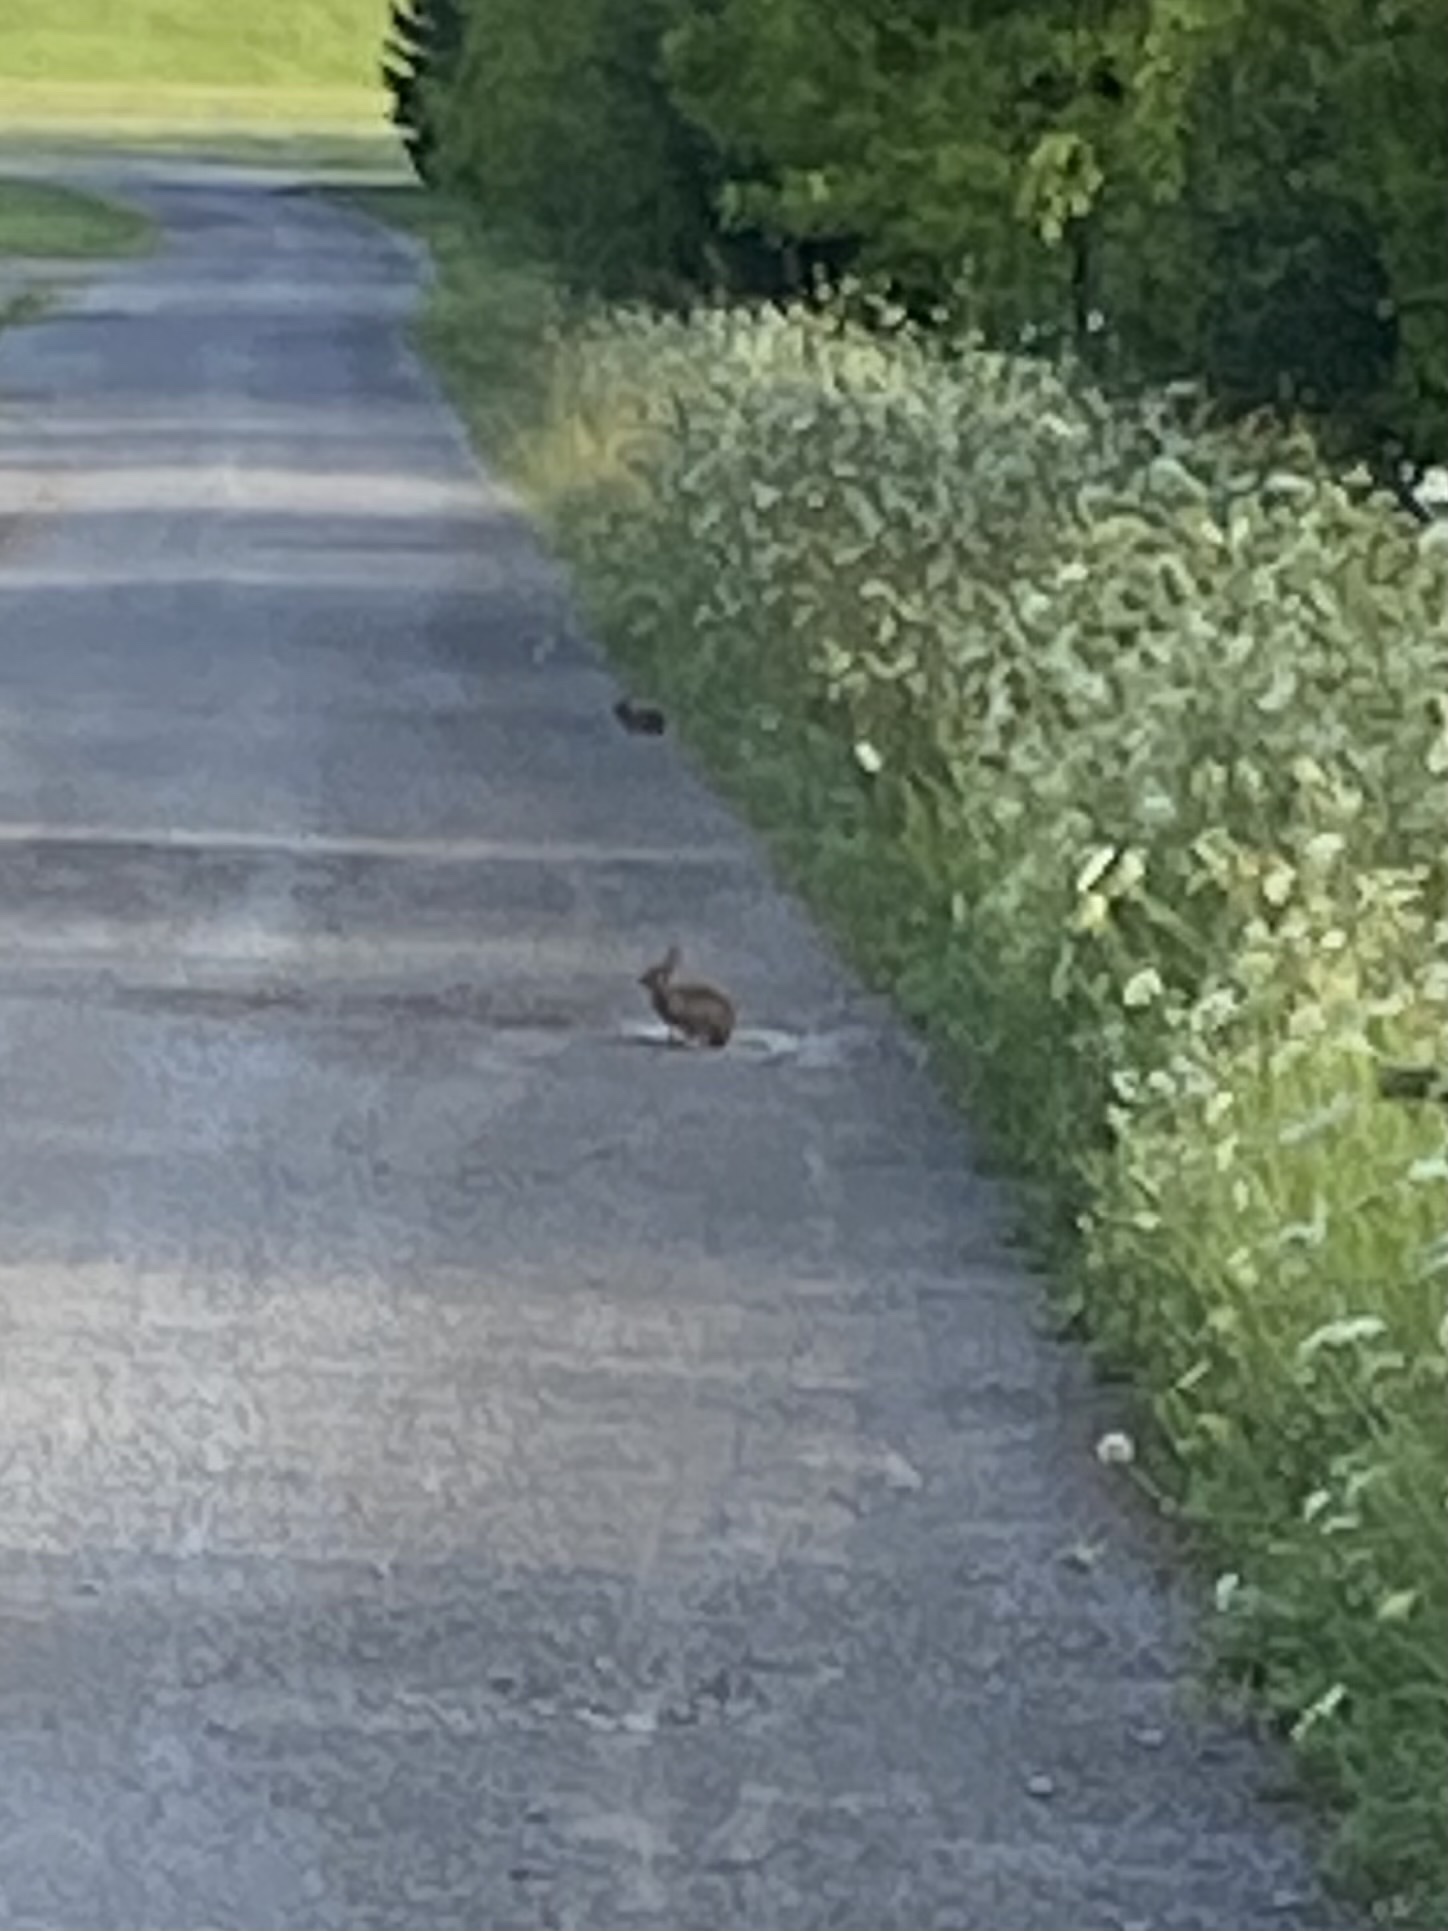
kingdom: Animalia
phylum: Chordata
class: Mammalia
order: Lagomorpha
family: Leporidae
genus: Sylvilagus
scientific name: Sylvilagus floridanus
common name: Eastern cottontail
